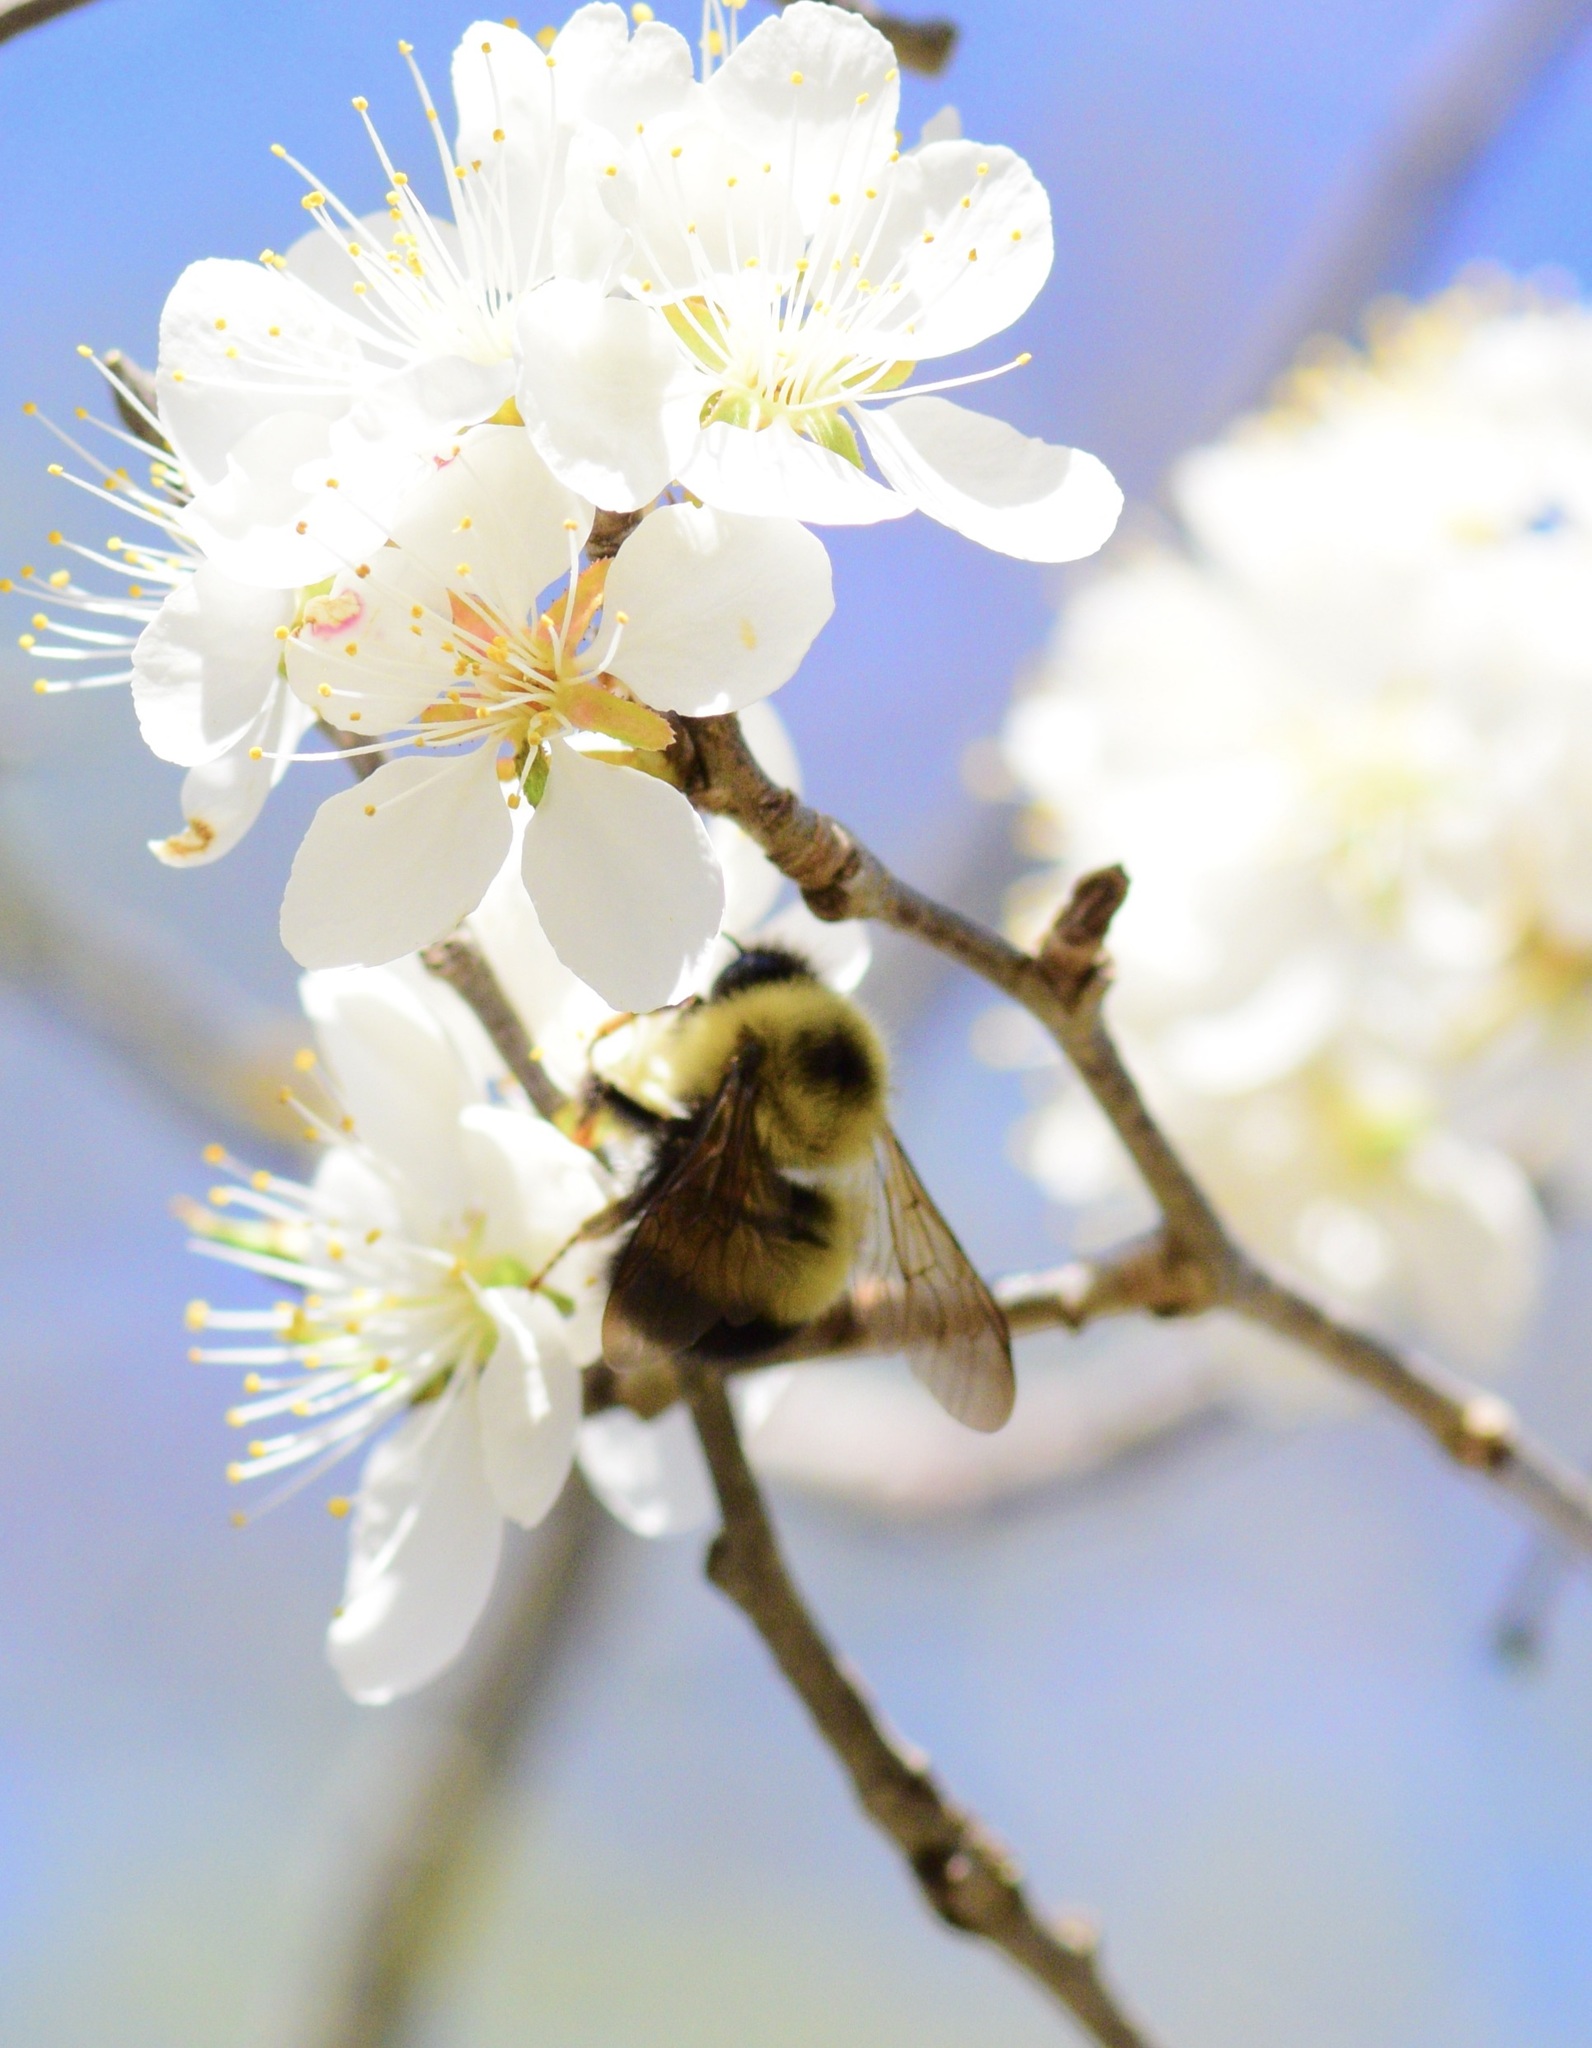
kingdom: Animalia
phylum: Arthropoda
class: Insecta
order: Hymenoptera
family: Apidae
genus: Pyrobombus
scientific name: Pyrobombus
